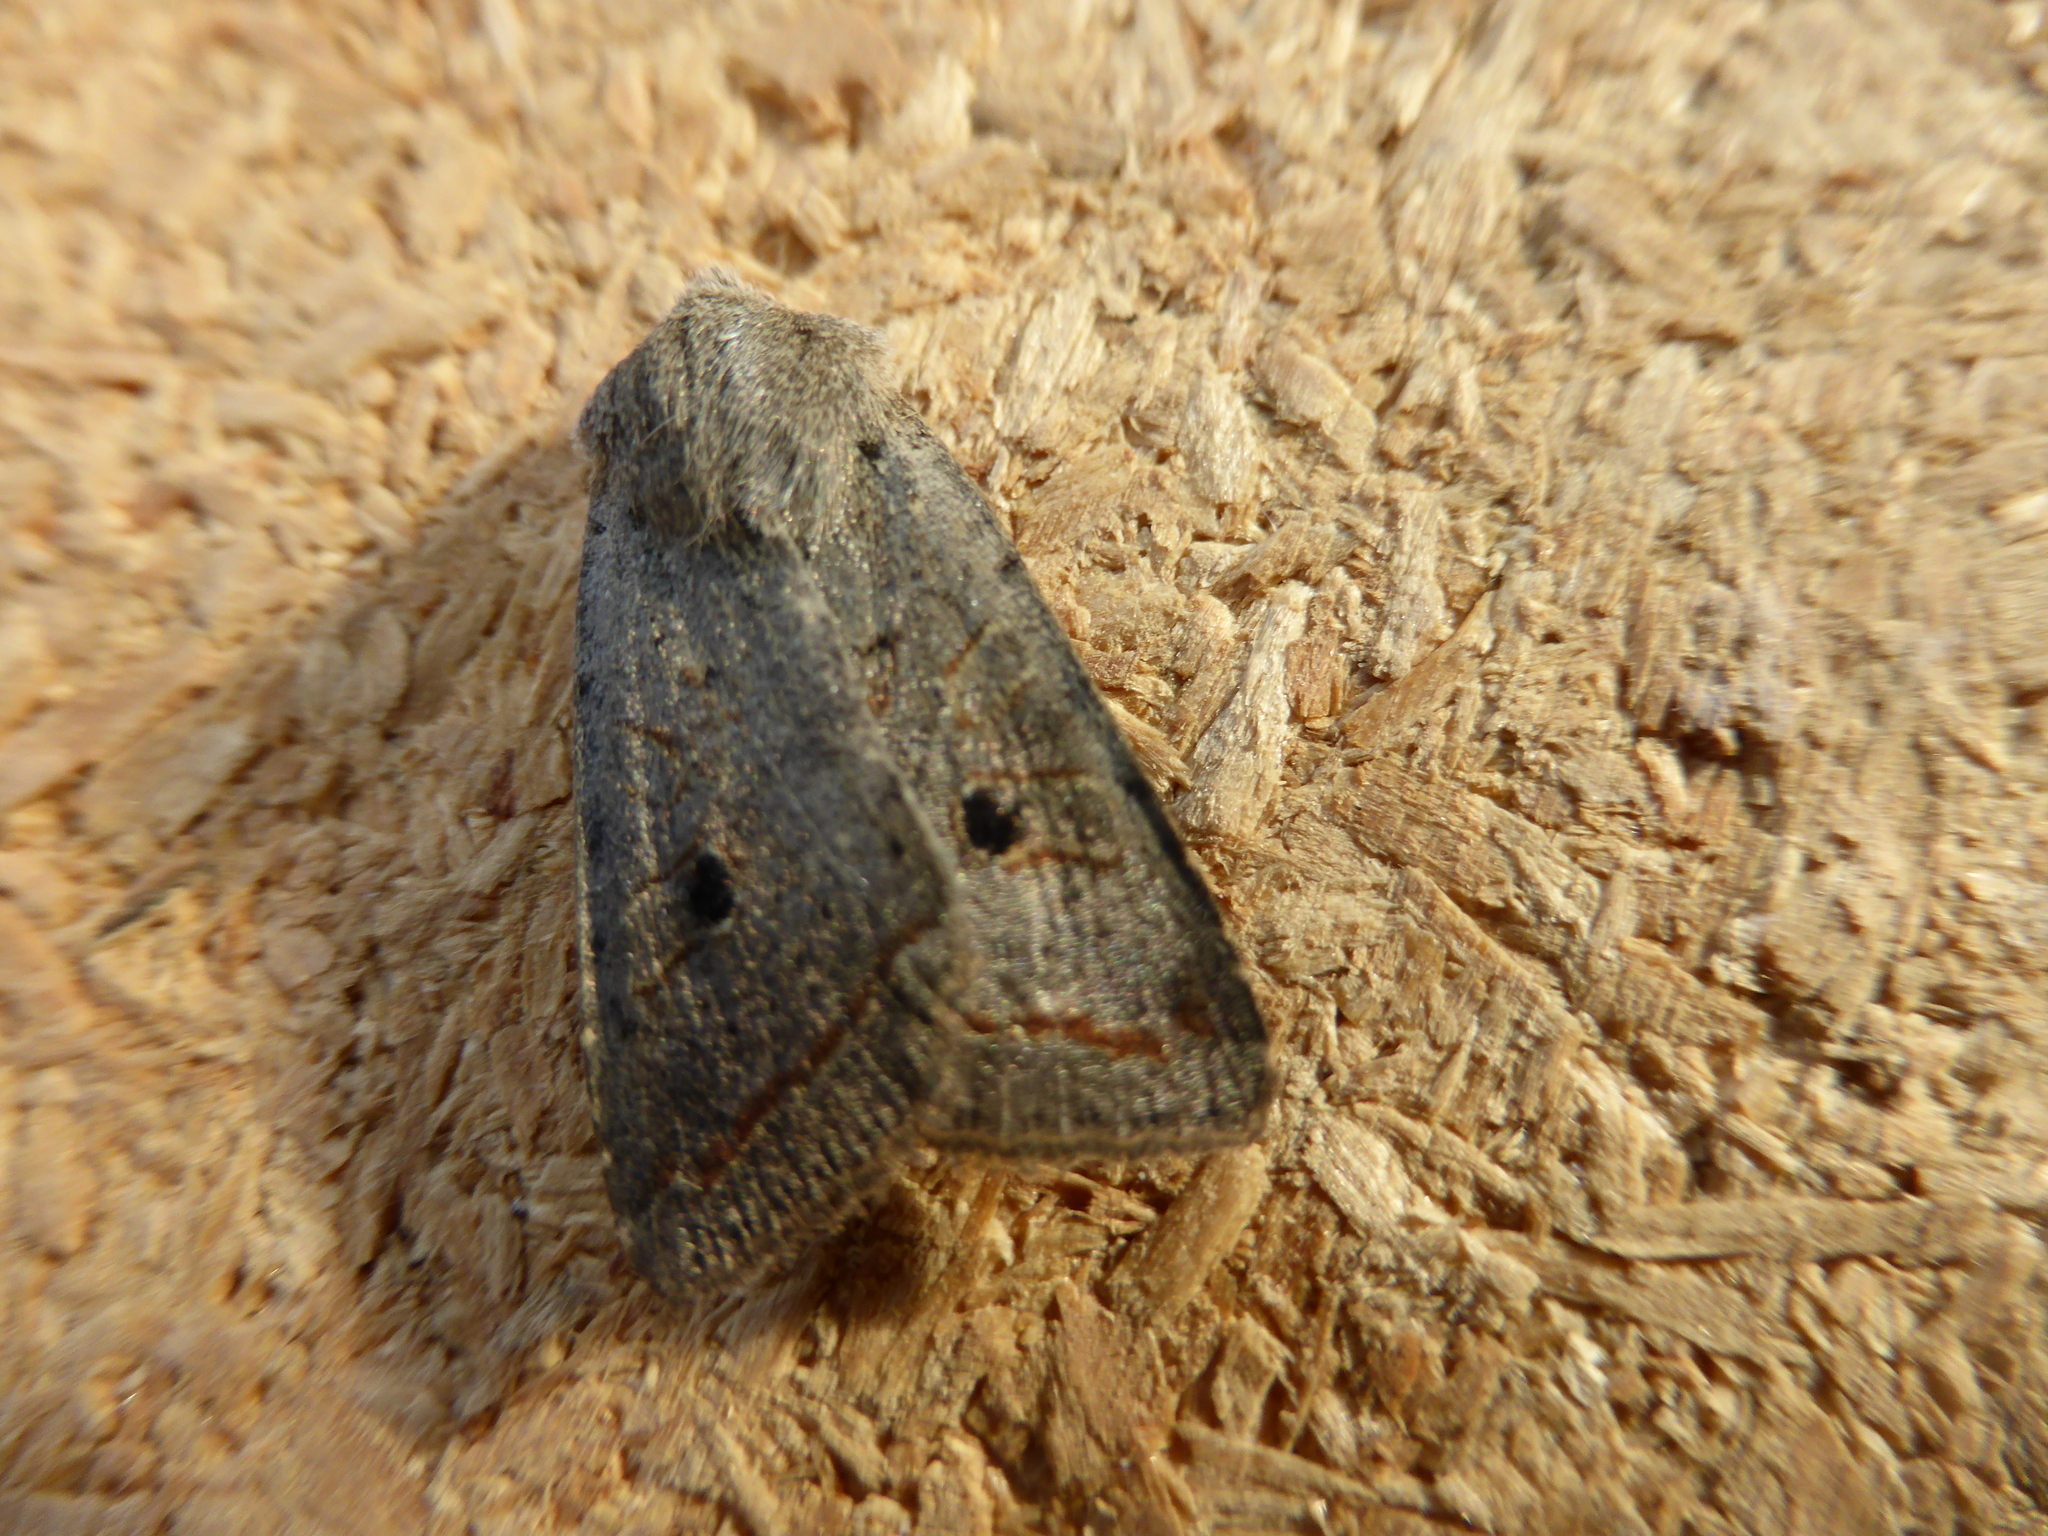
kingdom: Animalia
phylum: Arthropoda
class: Insecta
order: Lepidoptera
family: Noctuidae
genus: Agrochola
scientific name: Agrochola lota
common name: Red-line quaker
